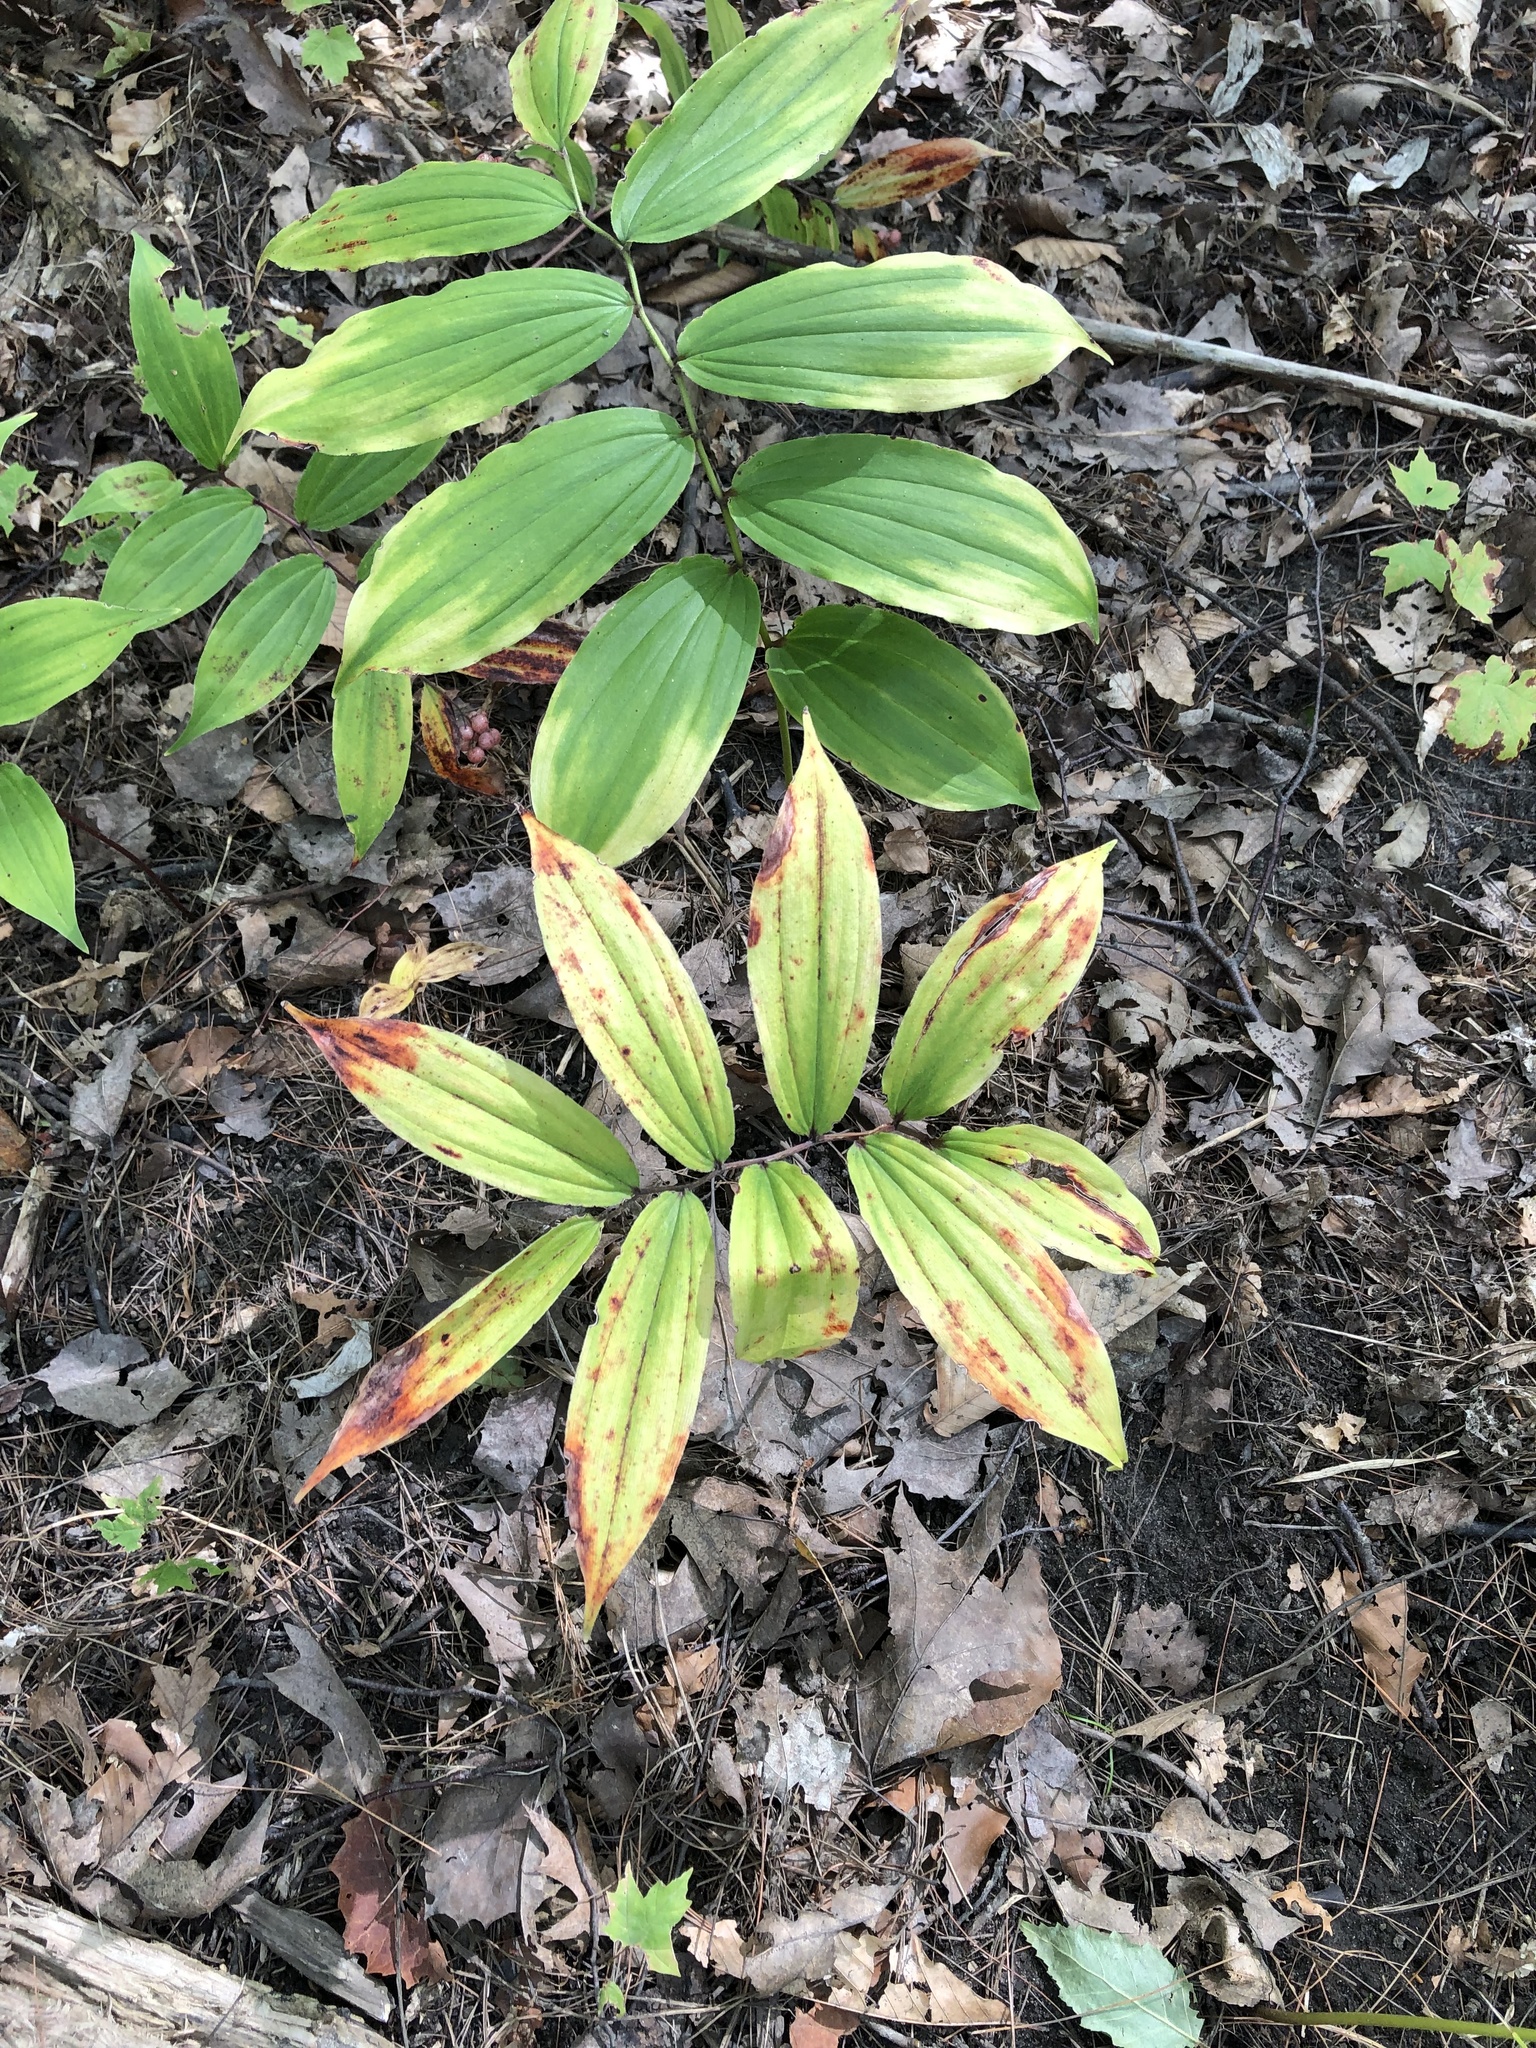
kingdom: Plantae
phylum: Tracheophyta
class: Liliopsida
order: Asparagales
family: Asparagaceae
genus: Maianthemum
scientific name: Maianthemum racemosum
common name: False spikenard
